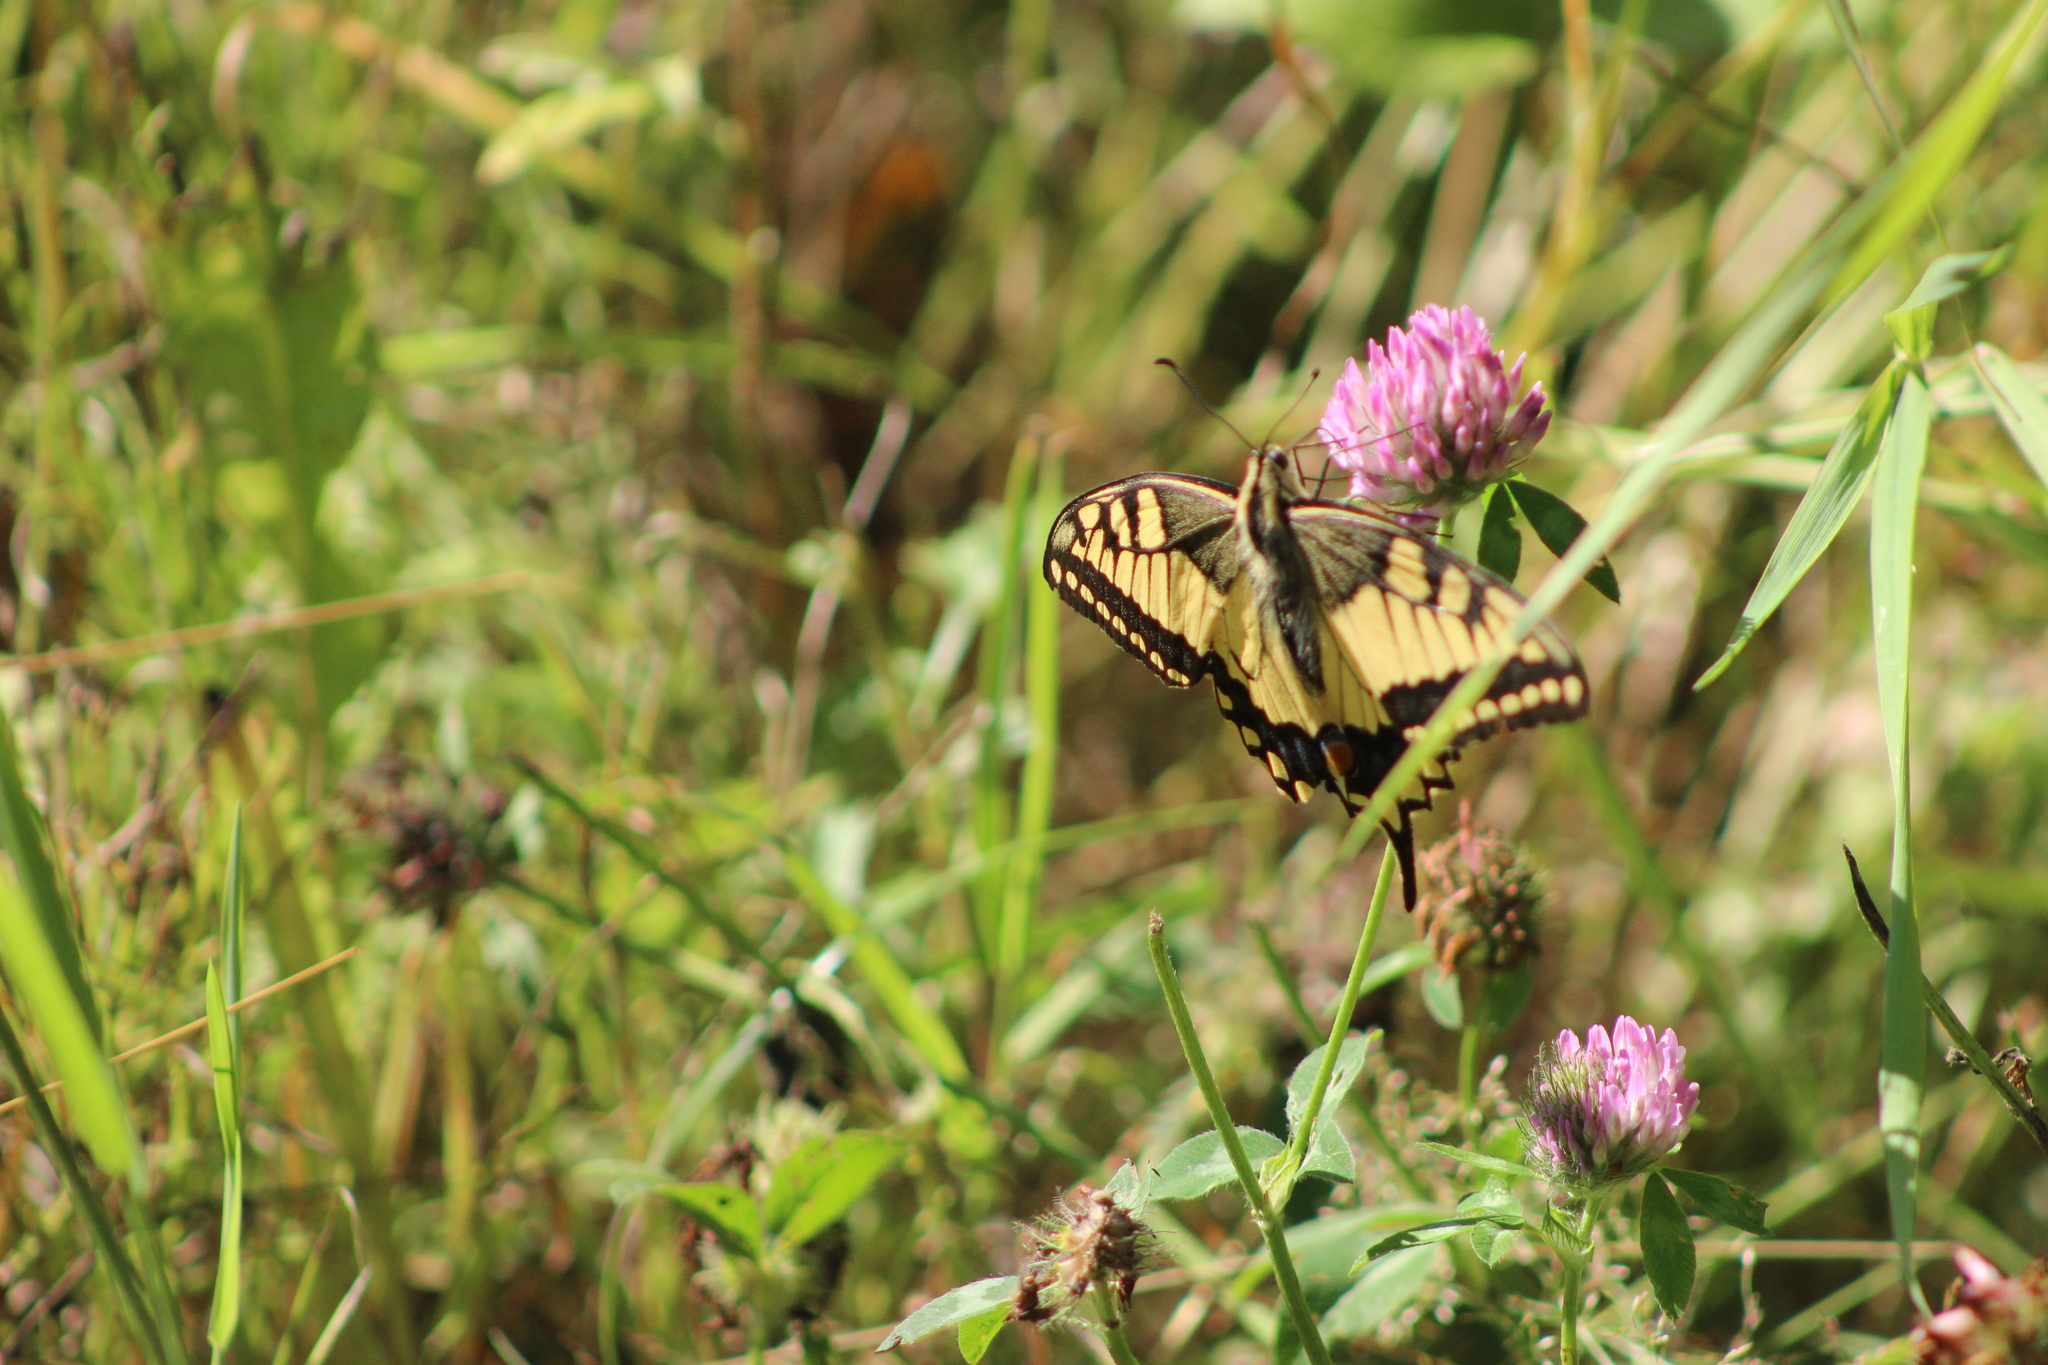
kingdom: Animalia
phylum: Arthropoda
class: Insecta
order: Lepidoptera
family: Papilionidae
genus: Papilio
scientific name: Papilio machaon
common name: Swallowtail
